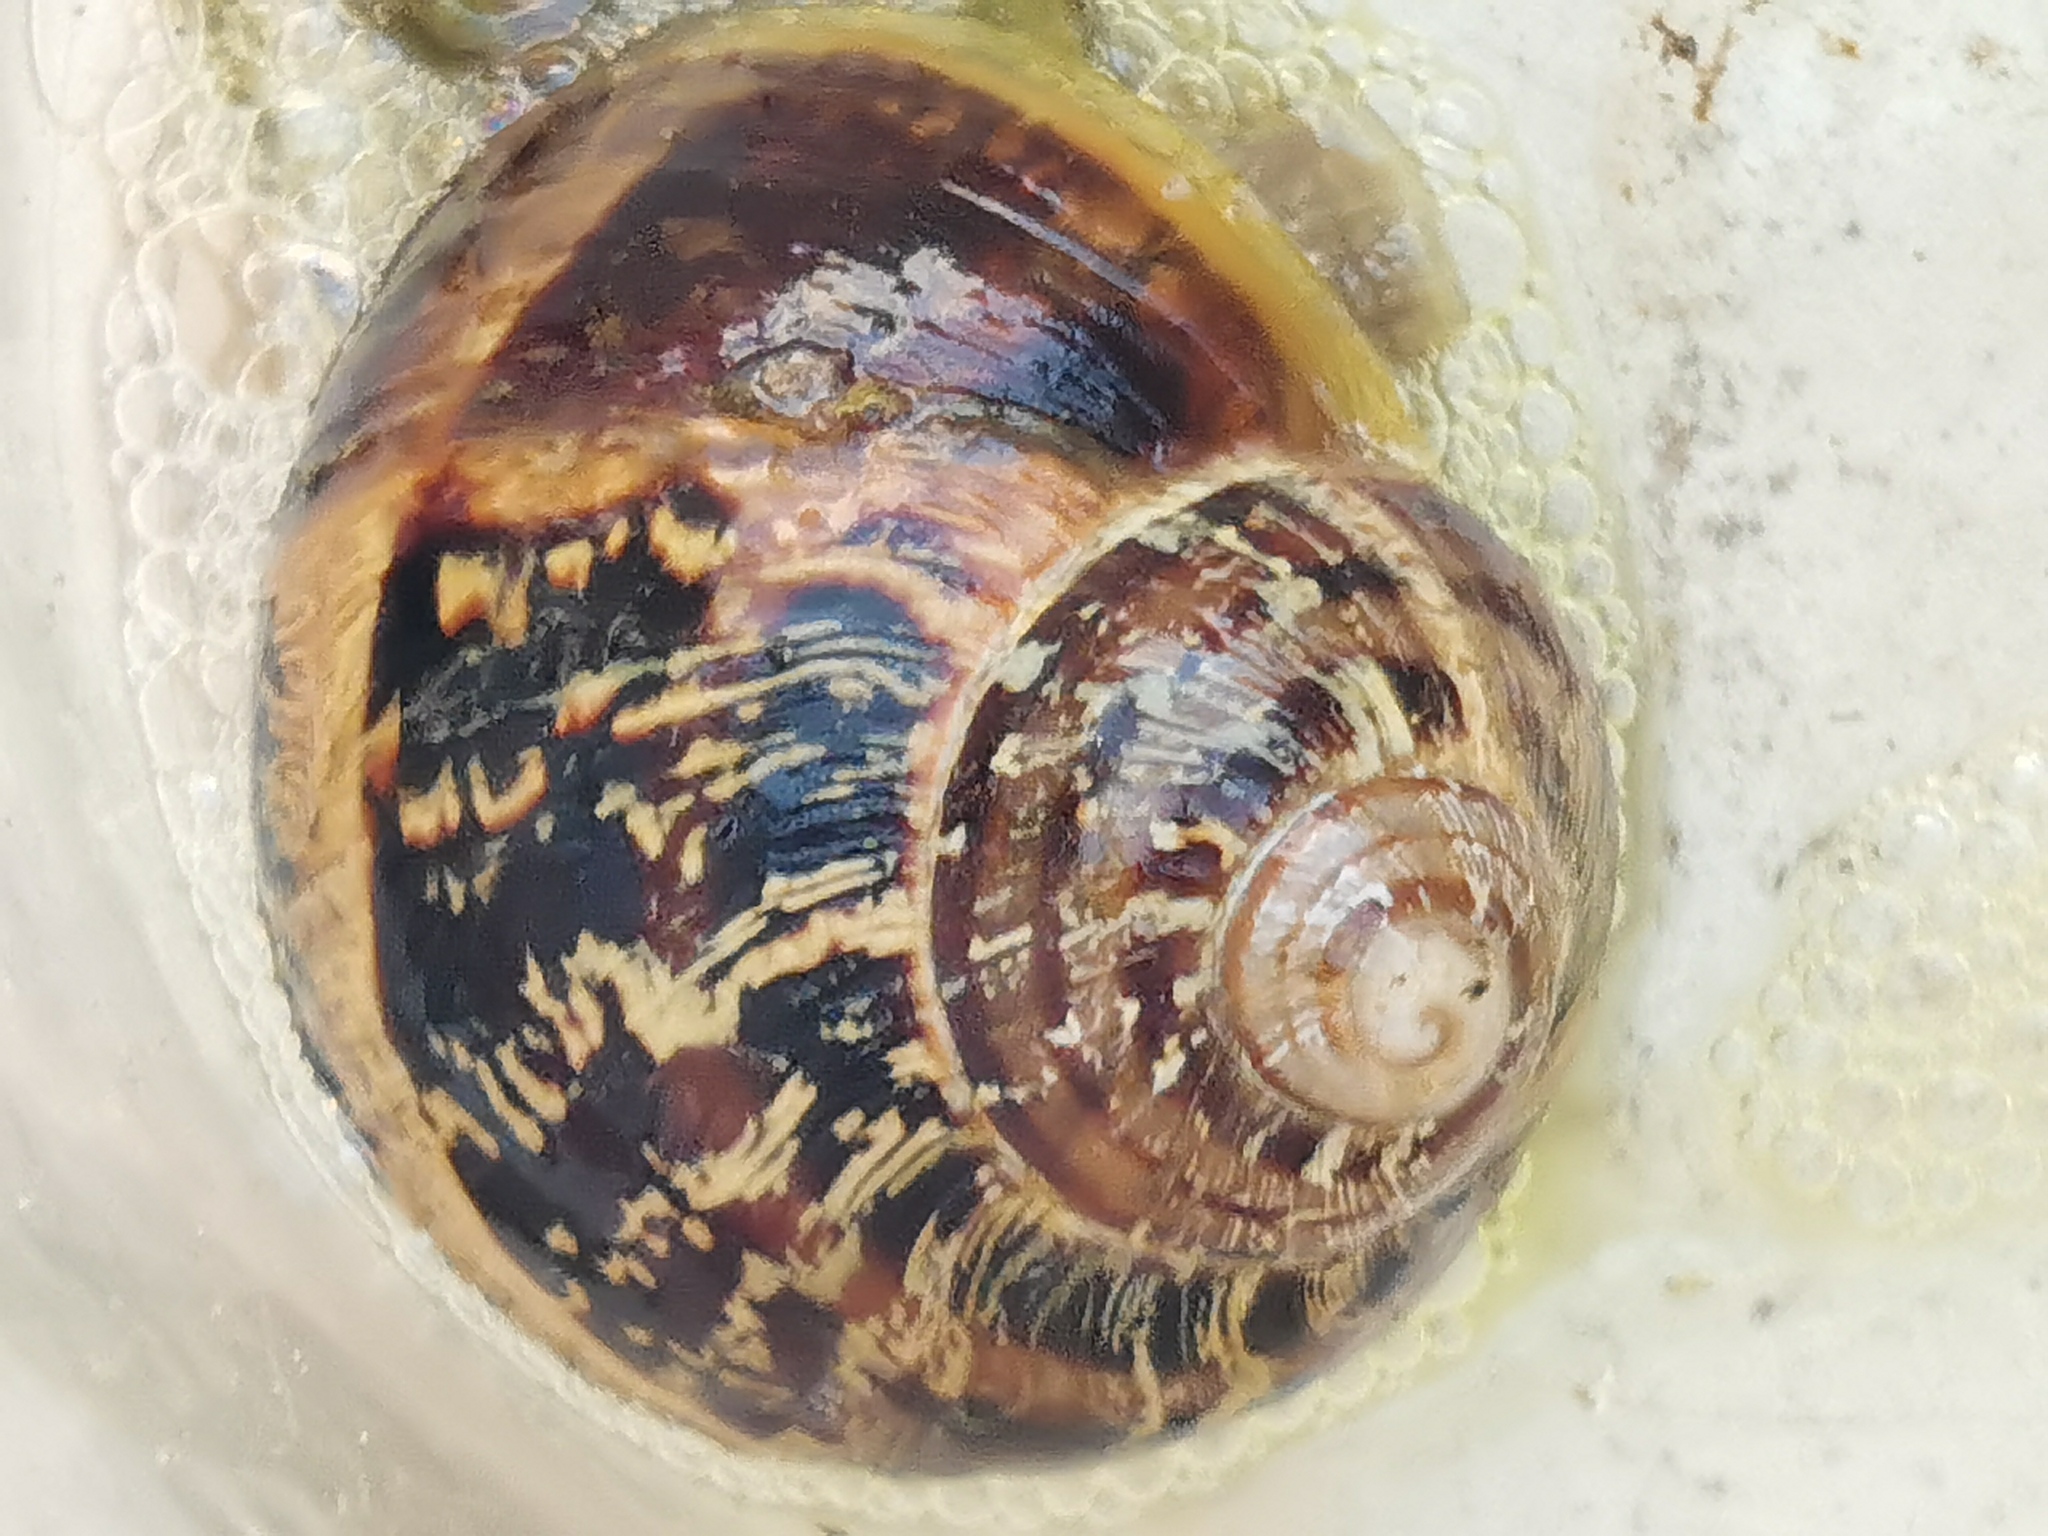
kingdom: Animalia
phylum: Mollusca
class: Gastropoda
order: Stylommatophora
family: Helicidae
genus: Cornu
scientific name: Cornu aspersum
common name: Brown garden snail
